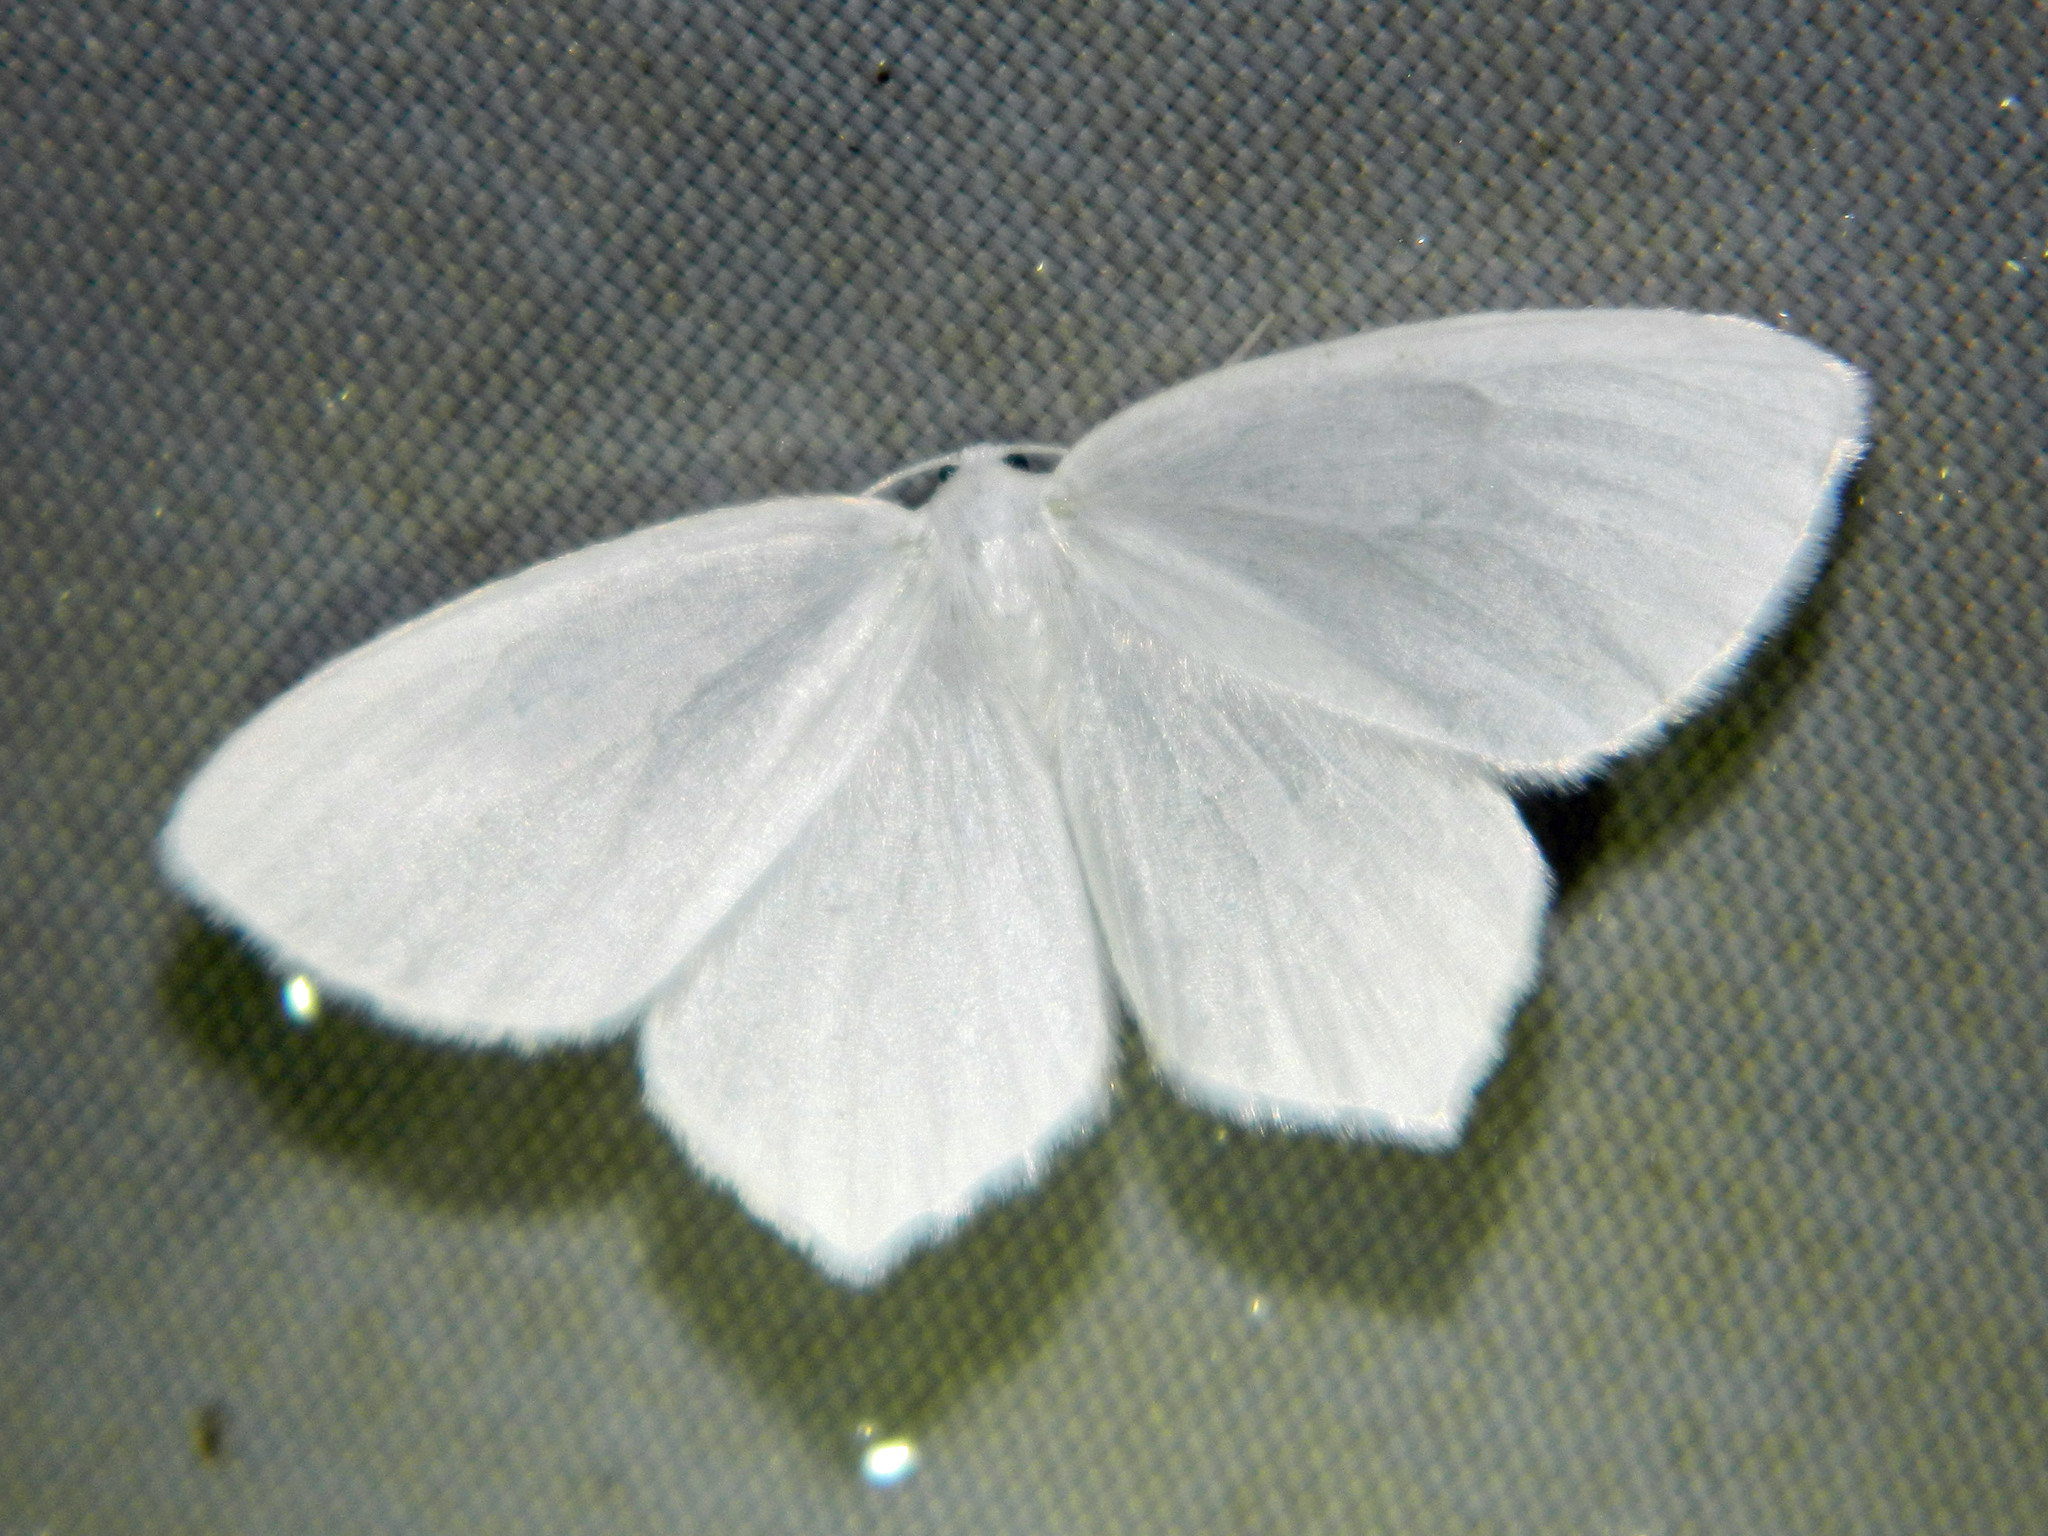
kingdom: Animalia
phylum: Arthropoda
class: Insecta
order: Lepidoptera
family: Geometridae
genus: Eugonobapta
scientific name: Eugonobapta nivosaria
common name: Snowy geometer
